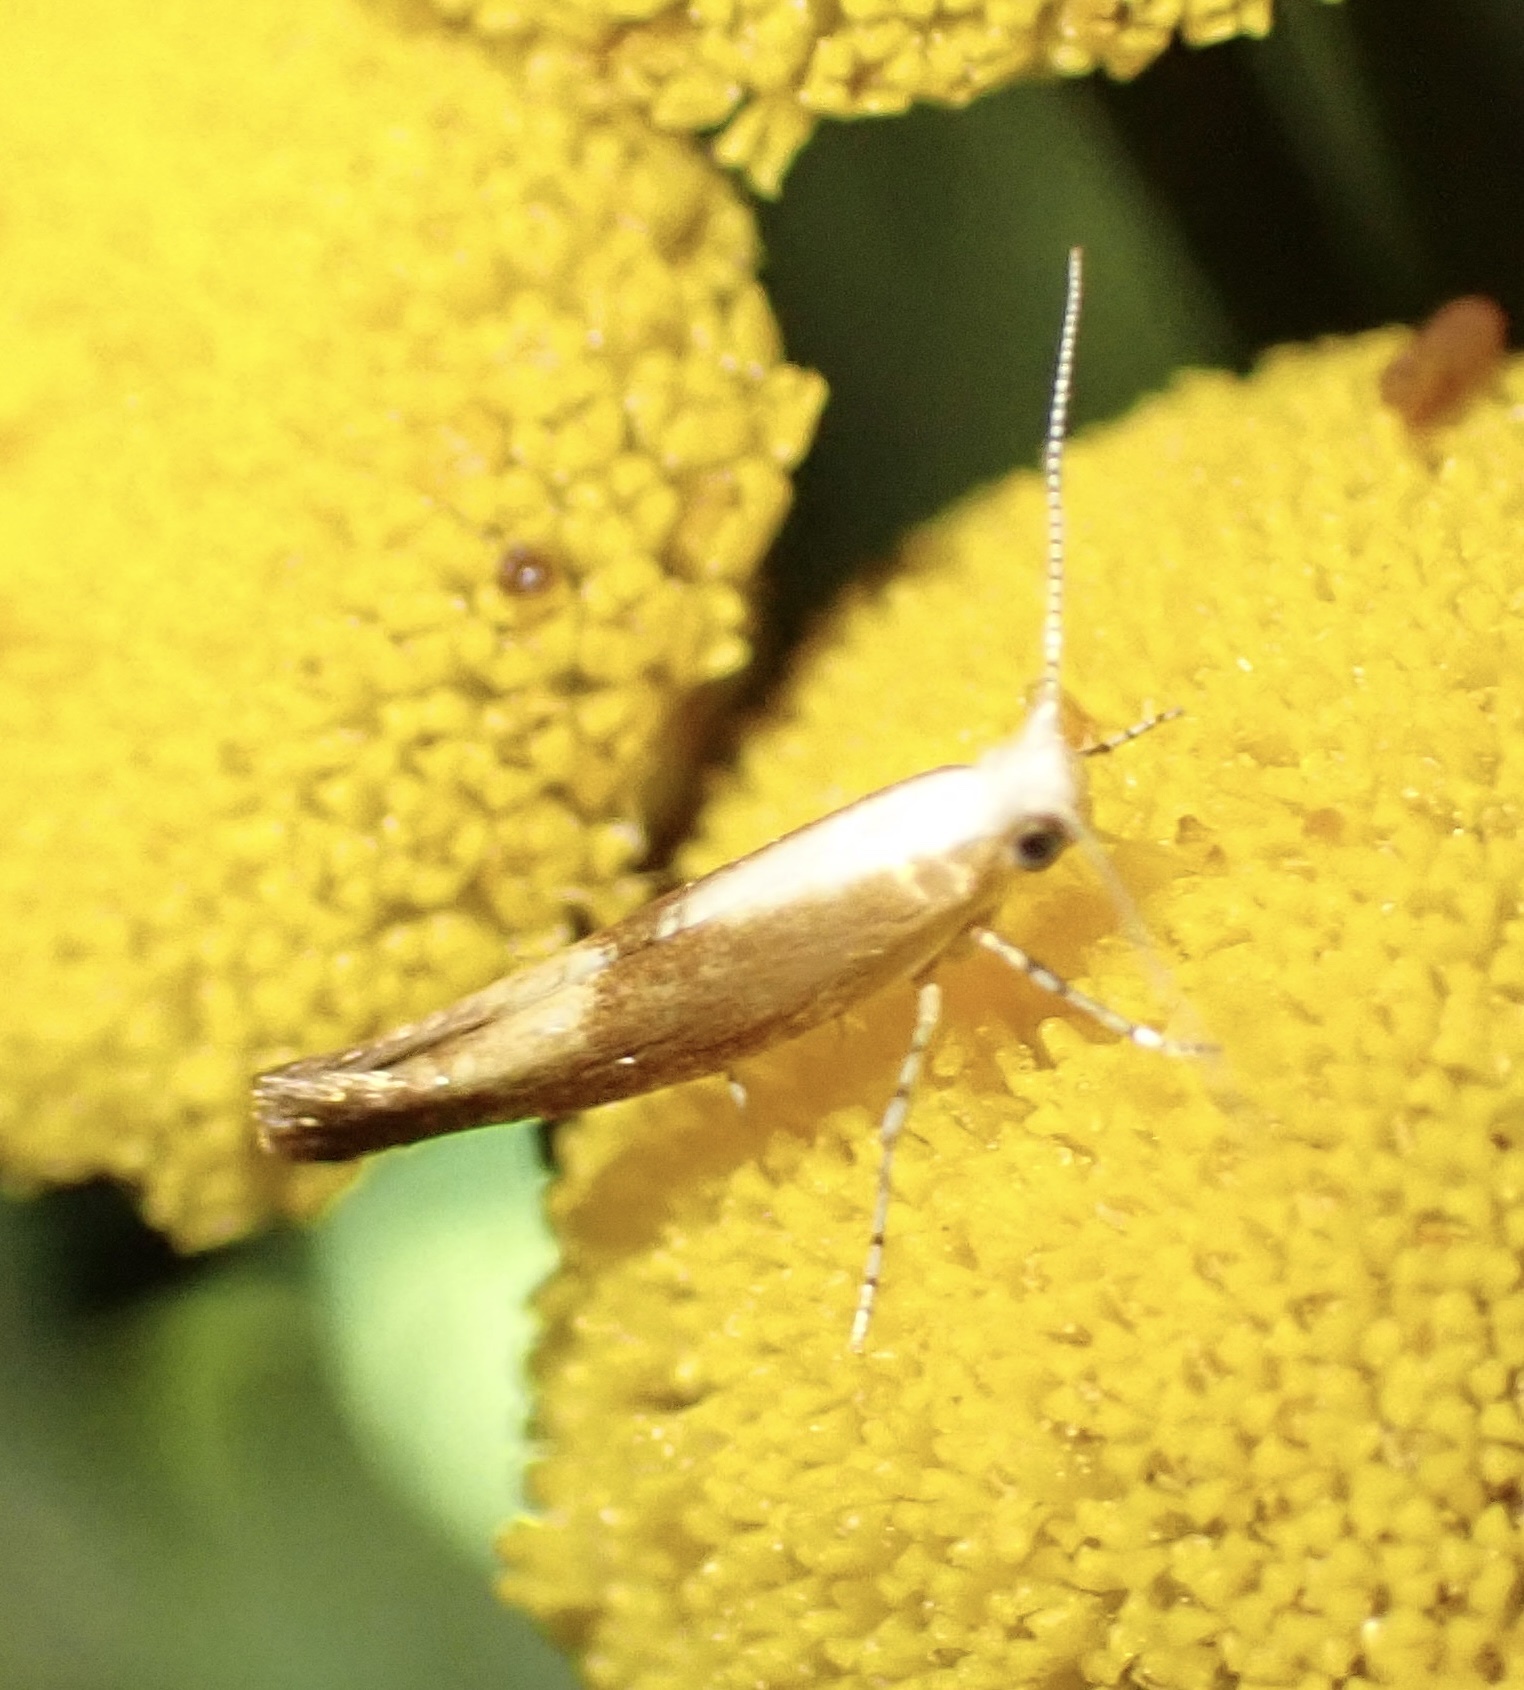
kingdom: Animalia
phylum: Arthropoda
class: Insecta
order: Lepidoptera
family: Argyresthiidae
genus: Argyresthia
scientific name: Argyresthia albistria
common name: Purple argent
